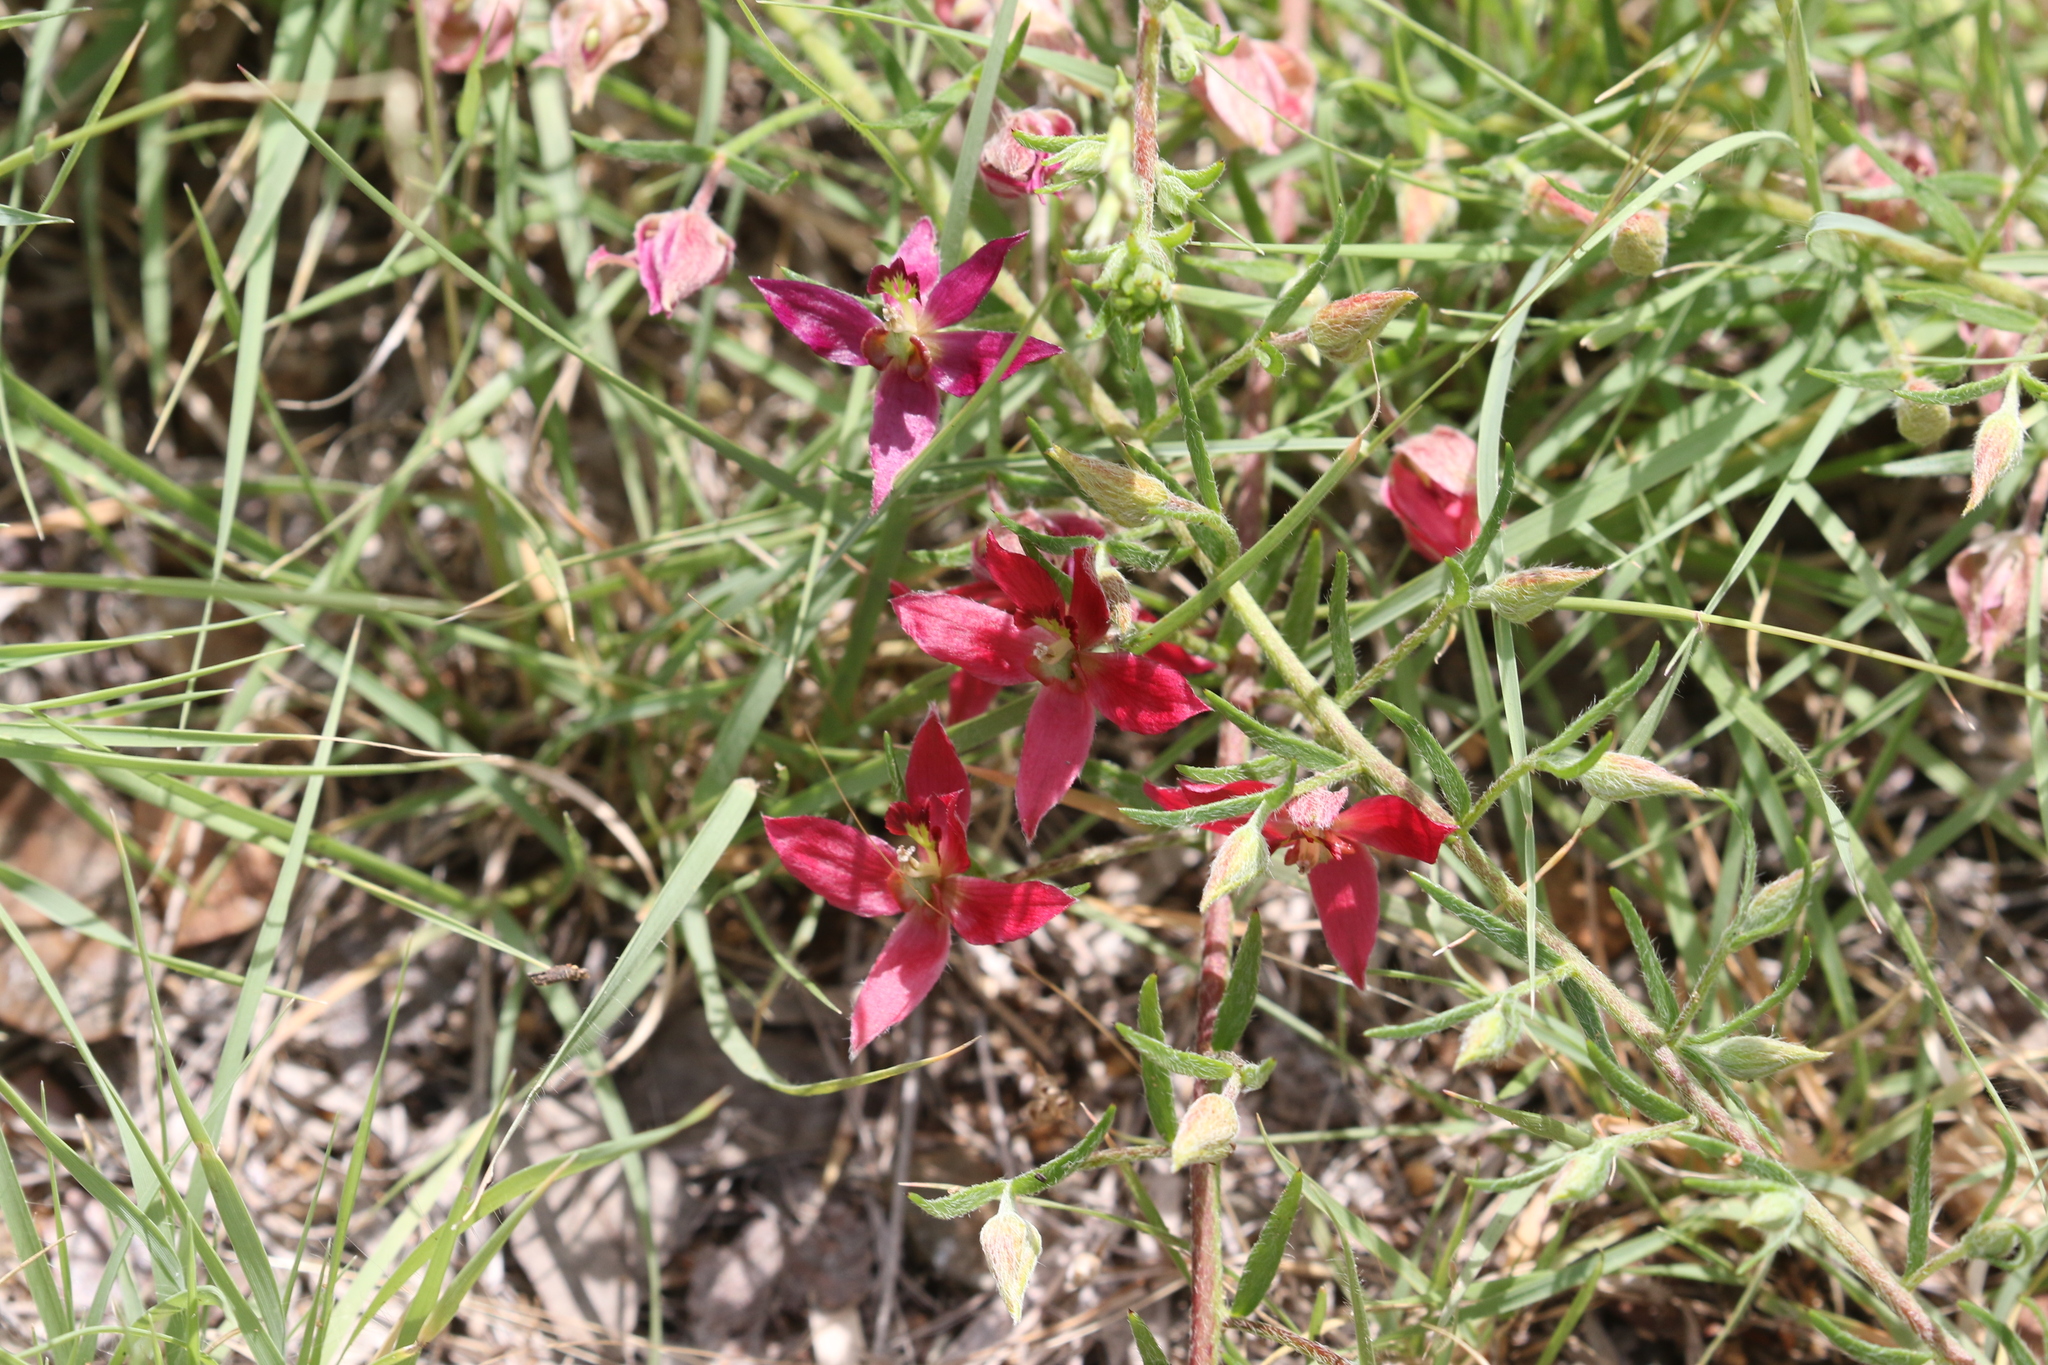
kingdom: Plantae
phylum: Tracheophyta
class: Magnoliopsida
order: Zygophyllales
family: Krameriaceae
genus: Krameria
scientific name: Krameria lanceolata
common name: Ratany
